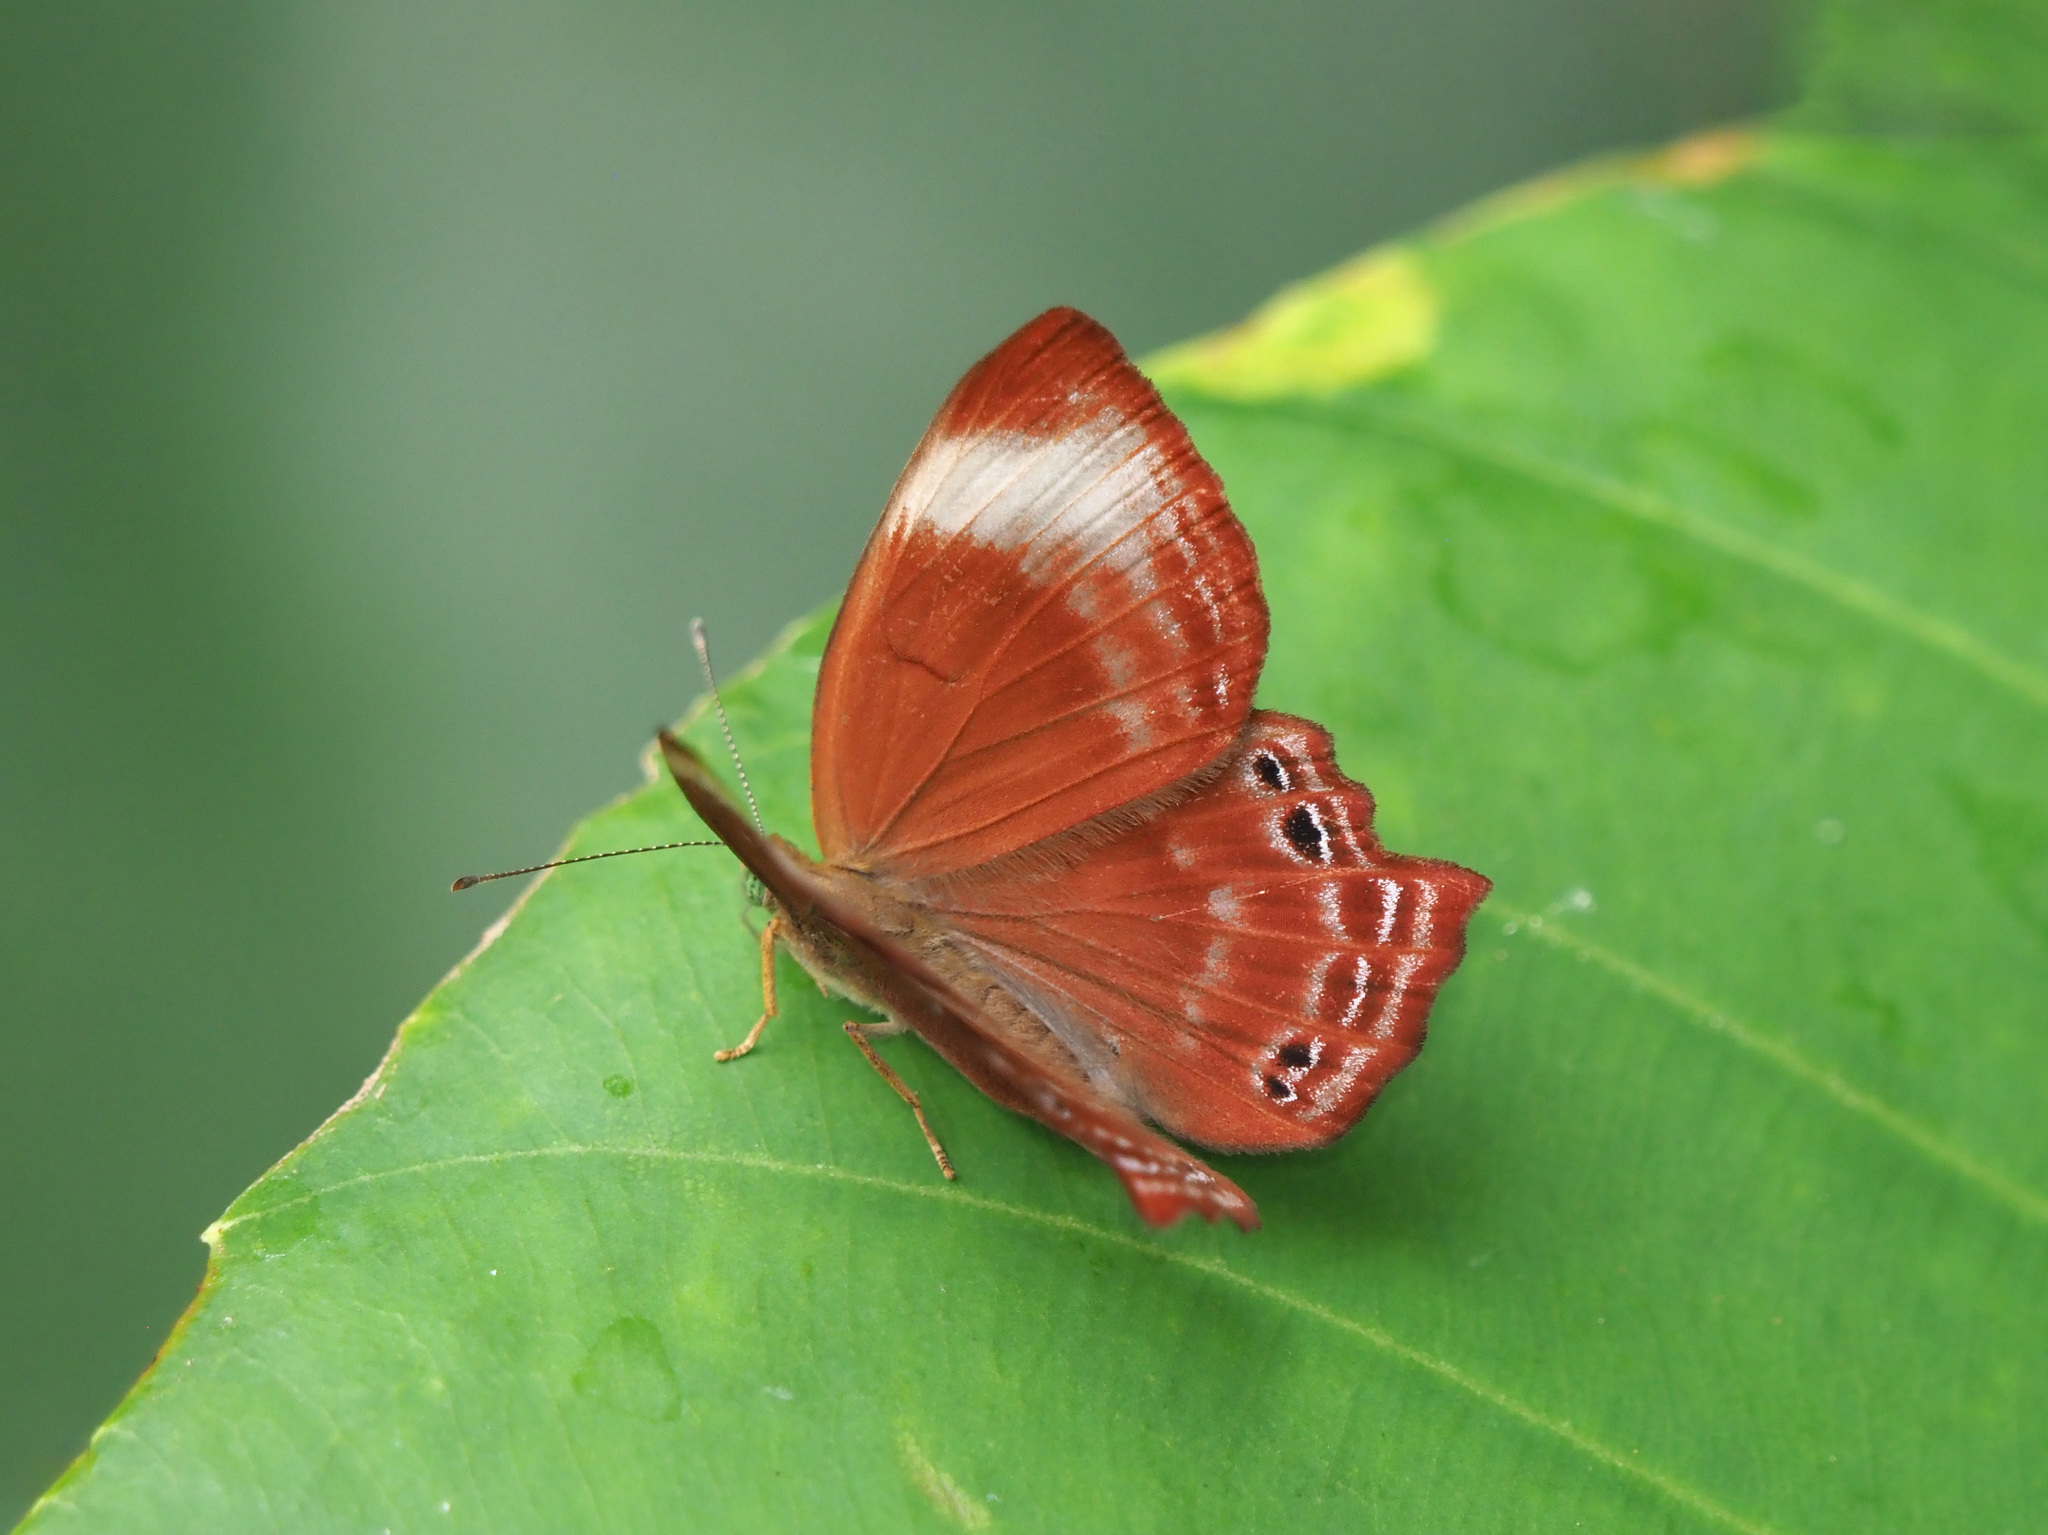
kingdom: Animalia
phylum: Arthropoda
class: Insecta
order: Lepidoptera
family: Lycaenidae
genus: Abisara
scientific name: Abisara saturata
